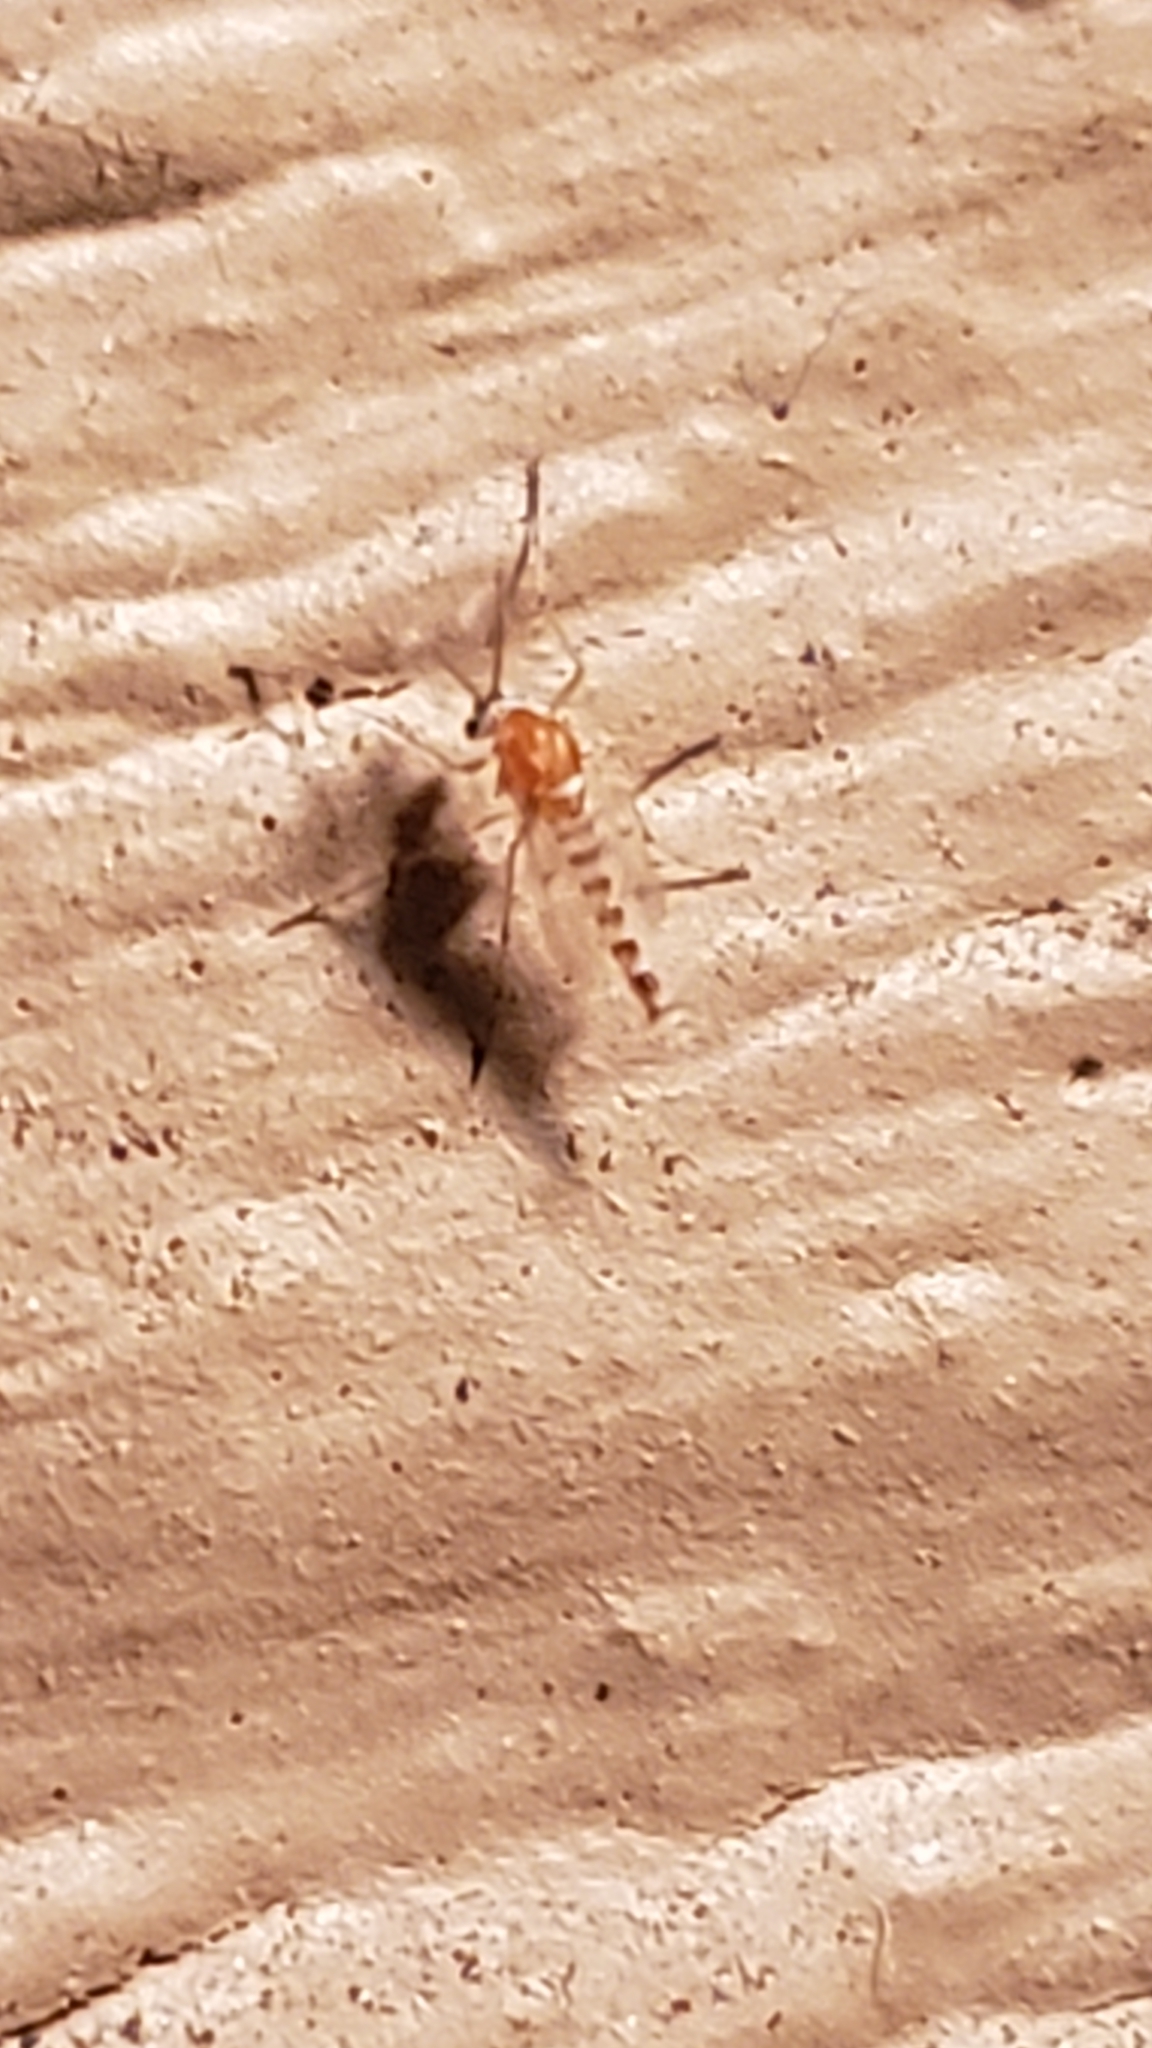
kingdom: Animalia
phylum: Arthropoda
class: Insecta
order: Diptera
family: Chironomidae
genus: Procladius
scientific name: Procladius bellus
